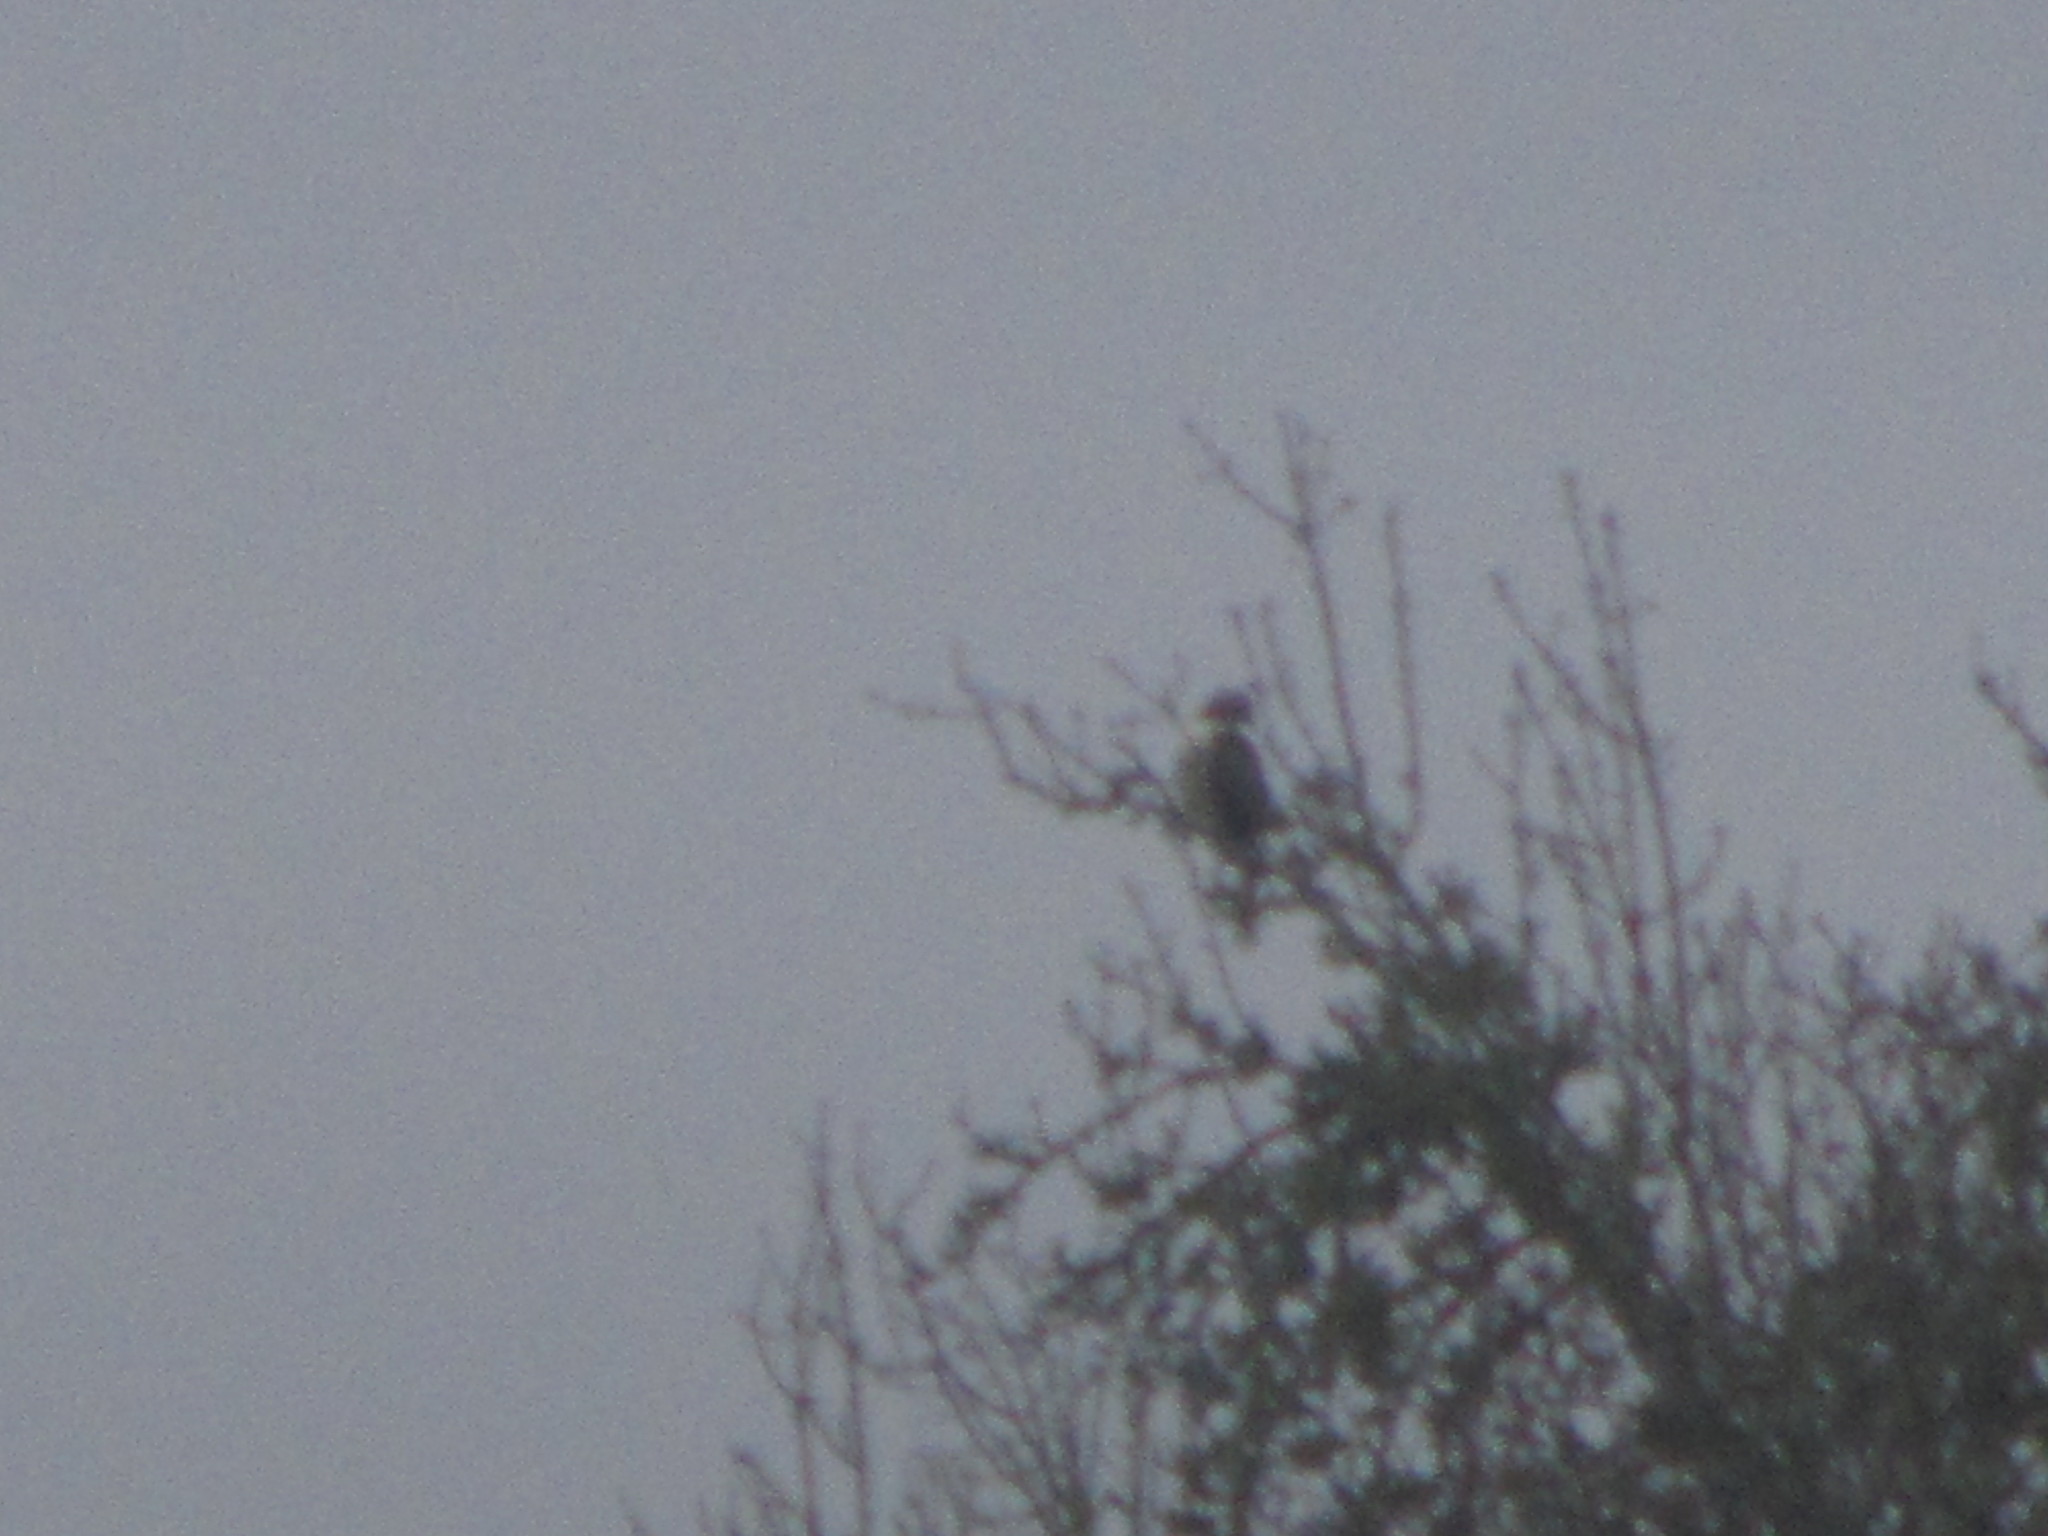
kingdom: Animalia
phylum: Chordata
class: Aves
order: Accipitriformes
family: Accipitridae
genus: Buteo
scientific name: Buteo jamaicensis
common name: Red-tailed hawk
